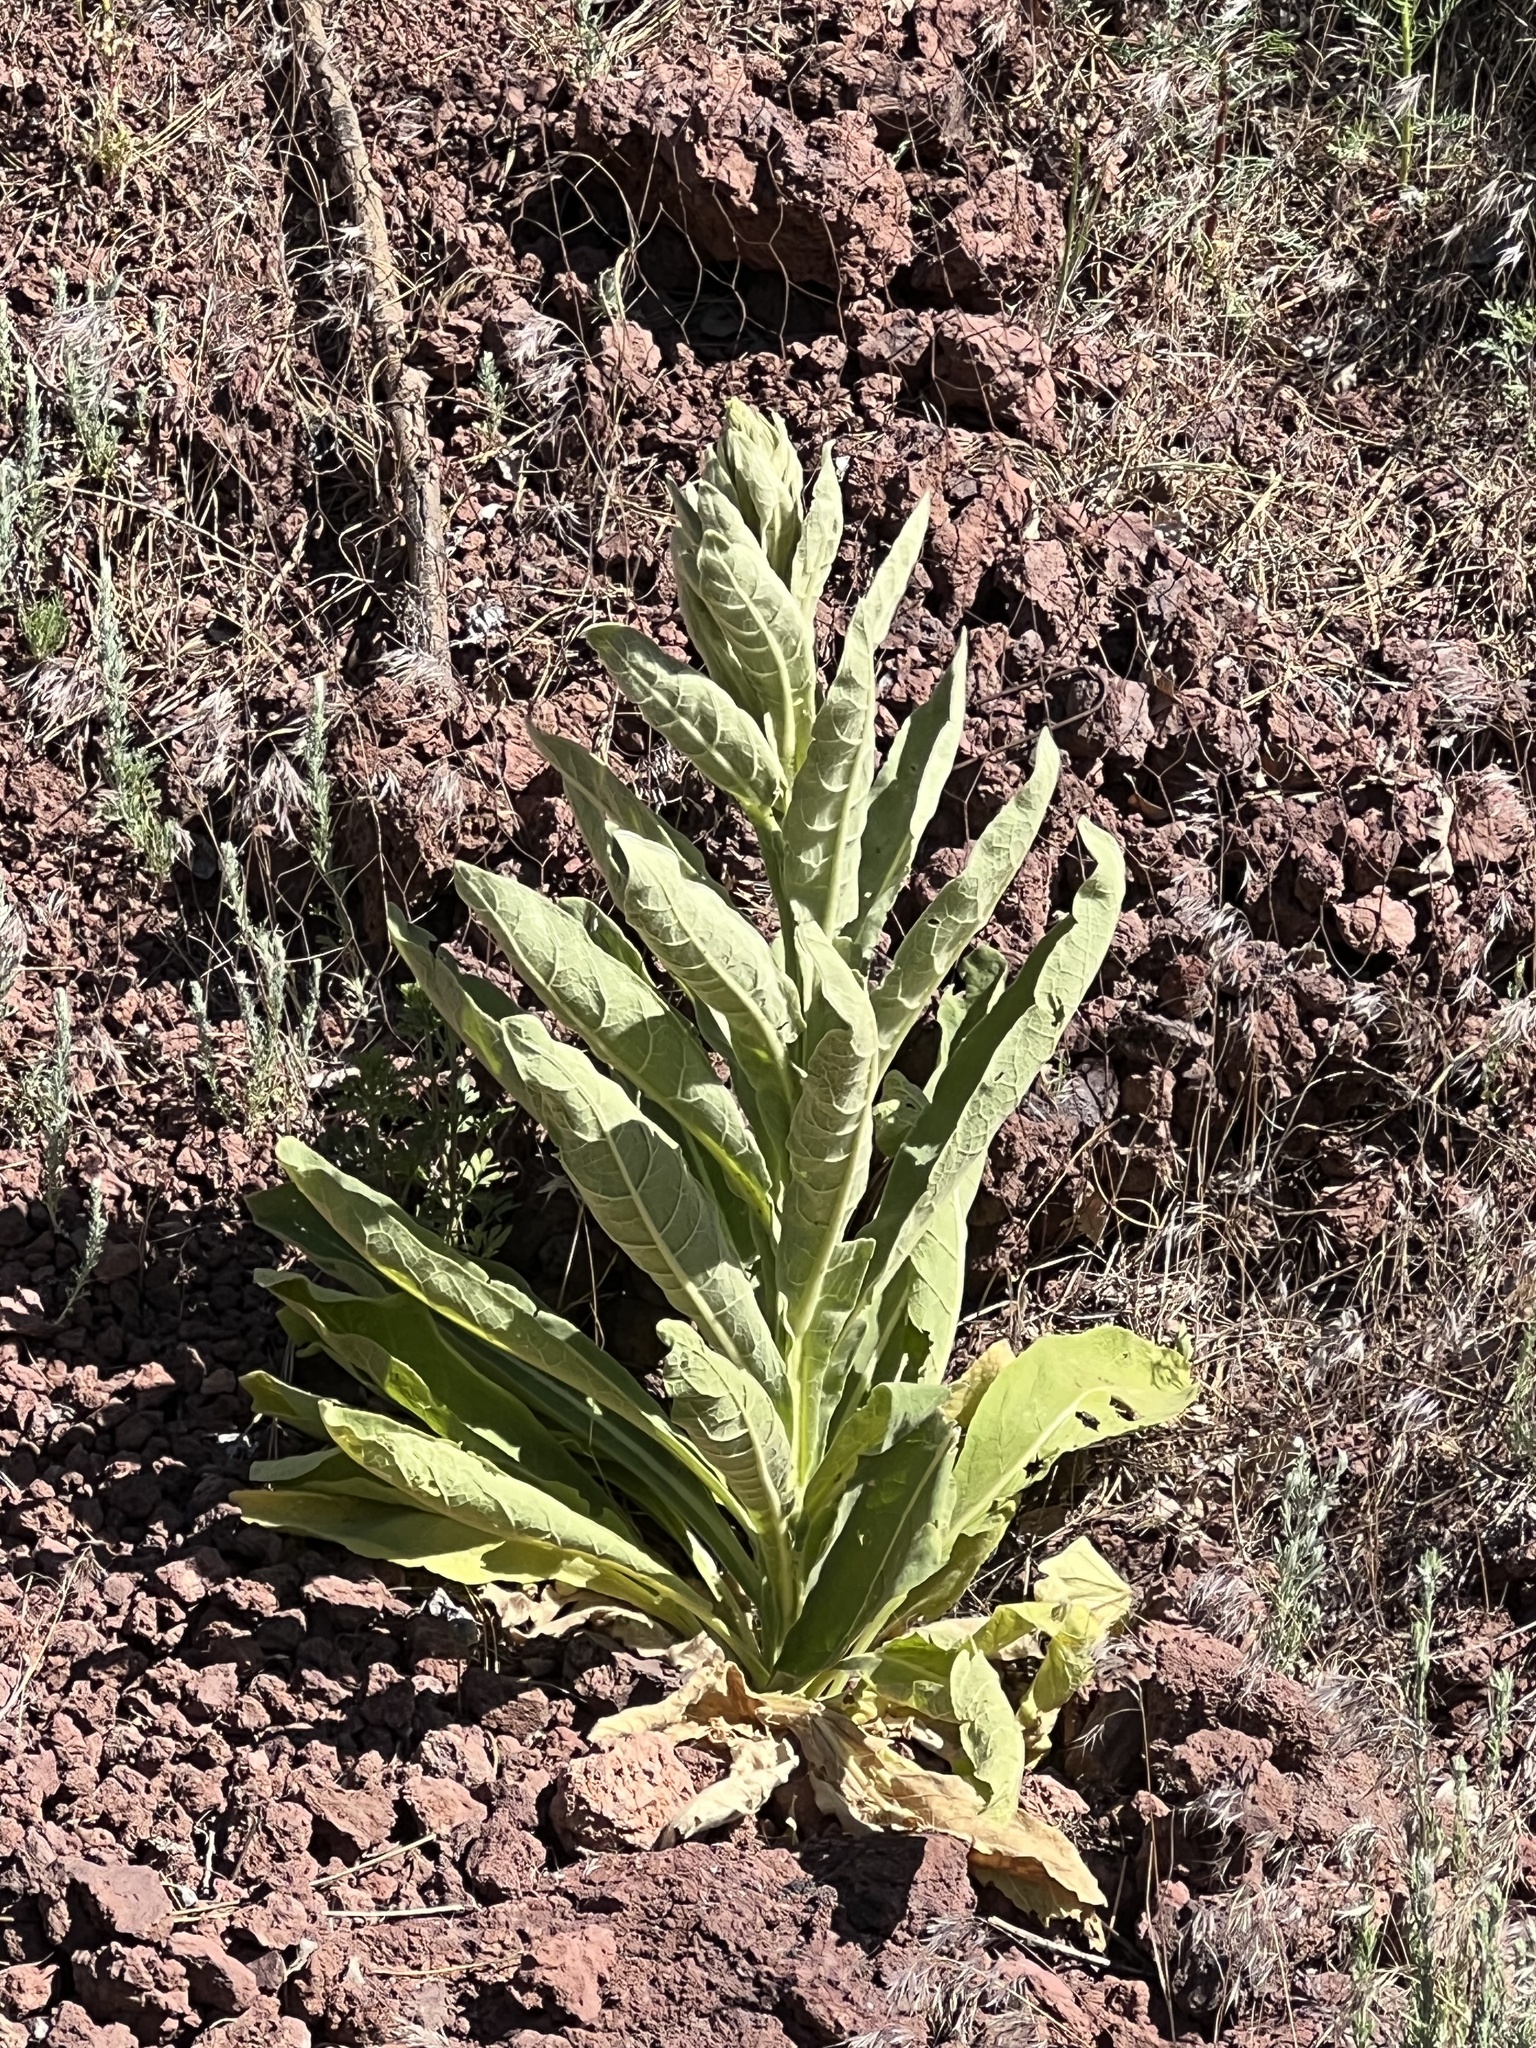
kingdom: Plantae
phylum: Tracheophyta
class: Magnoliopsida
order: Lamiales
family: Scrophulariaceae
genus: Verbascum
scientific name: Verbascum thapsus
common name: Common mullein
